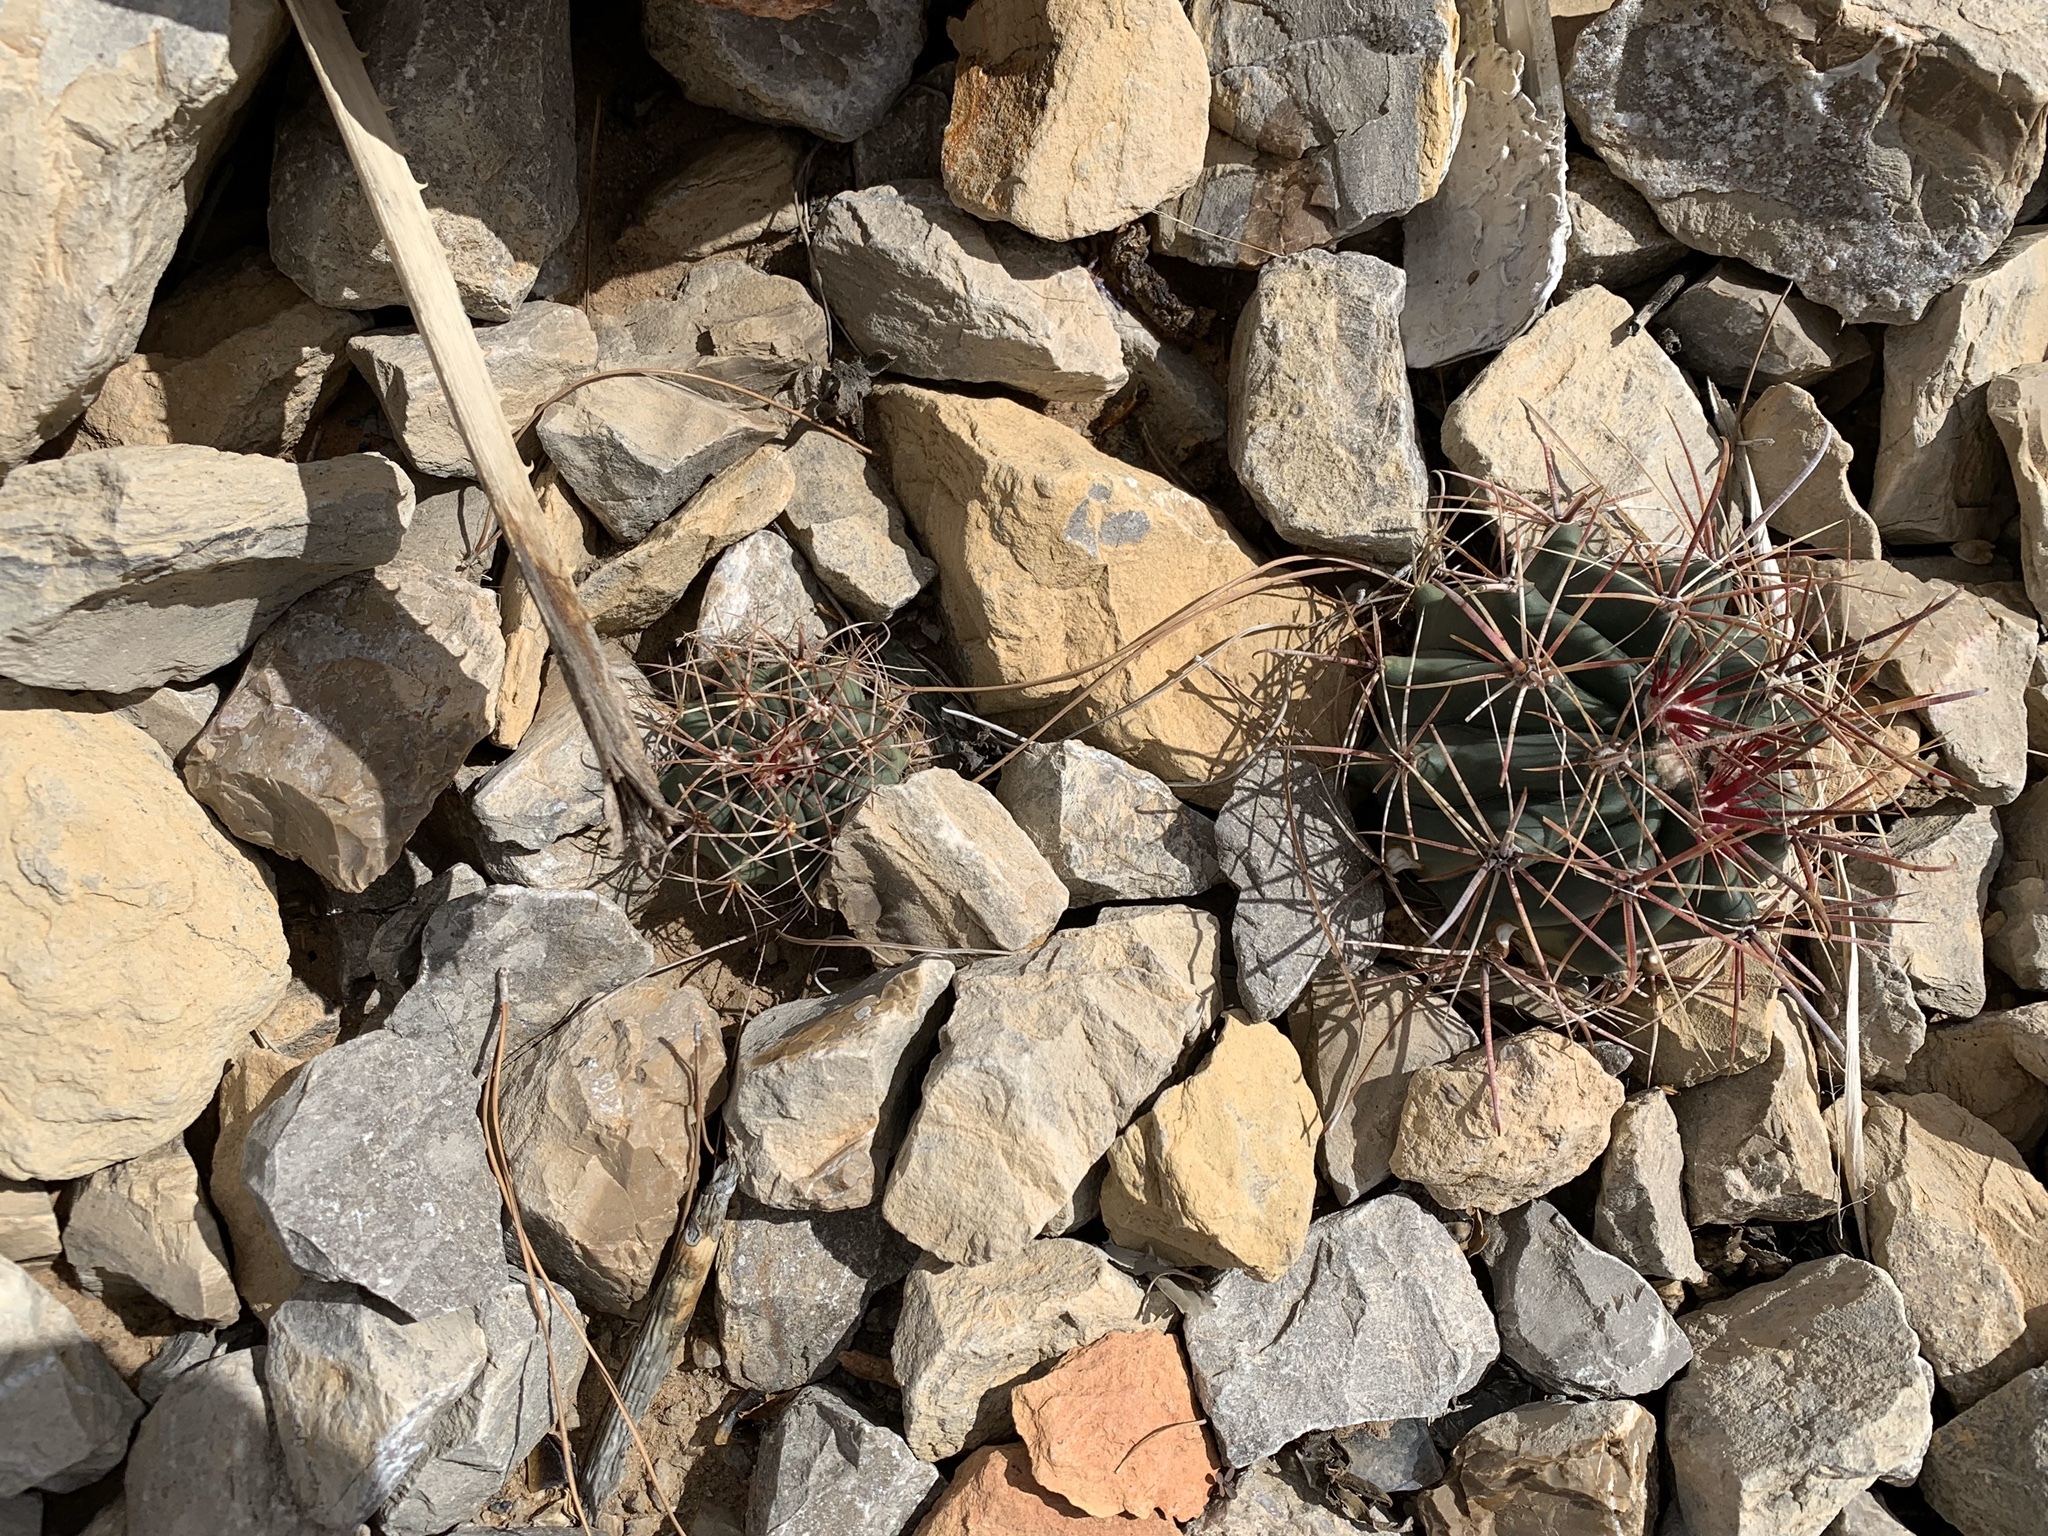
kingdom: Plantae
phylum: Tracheophyta
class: Magnoliopsida
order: Caryophyllales
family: Cactaceae
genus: Ferocactus
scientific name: Ferocactus wislizeni
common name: Candy barrel cactus
